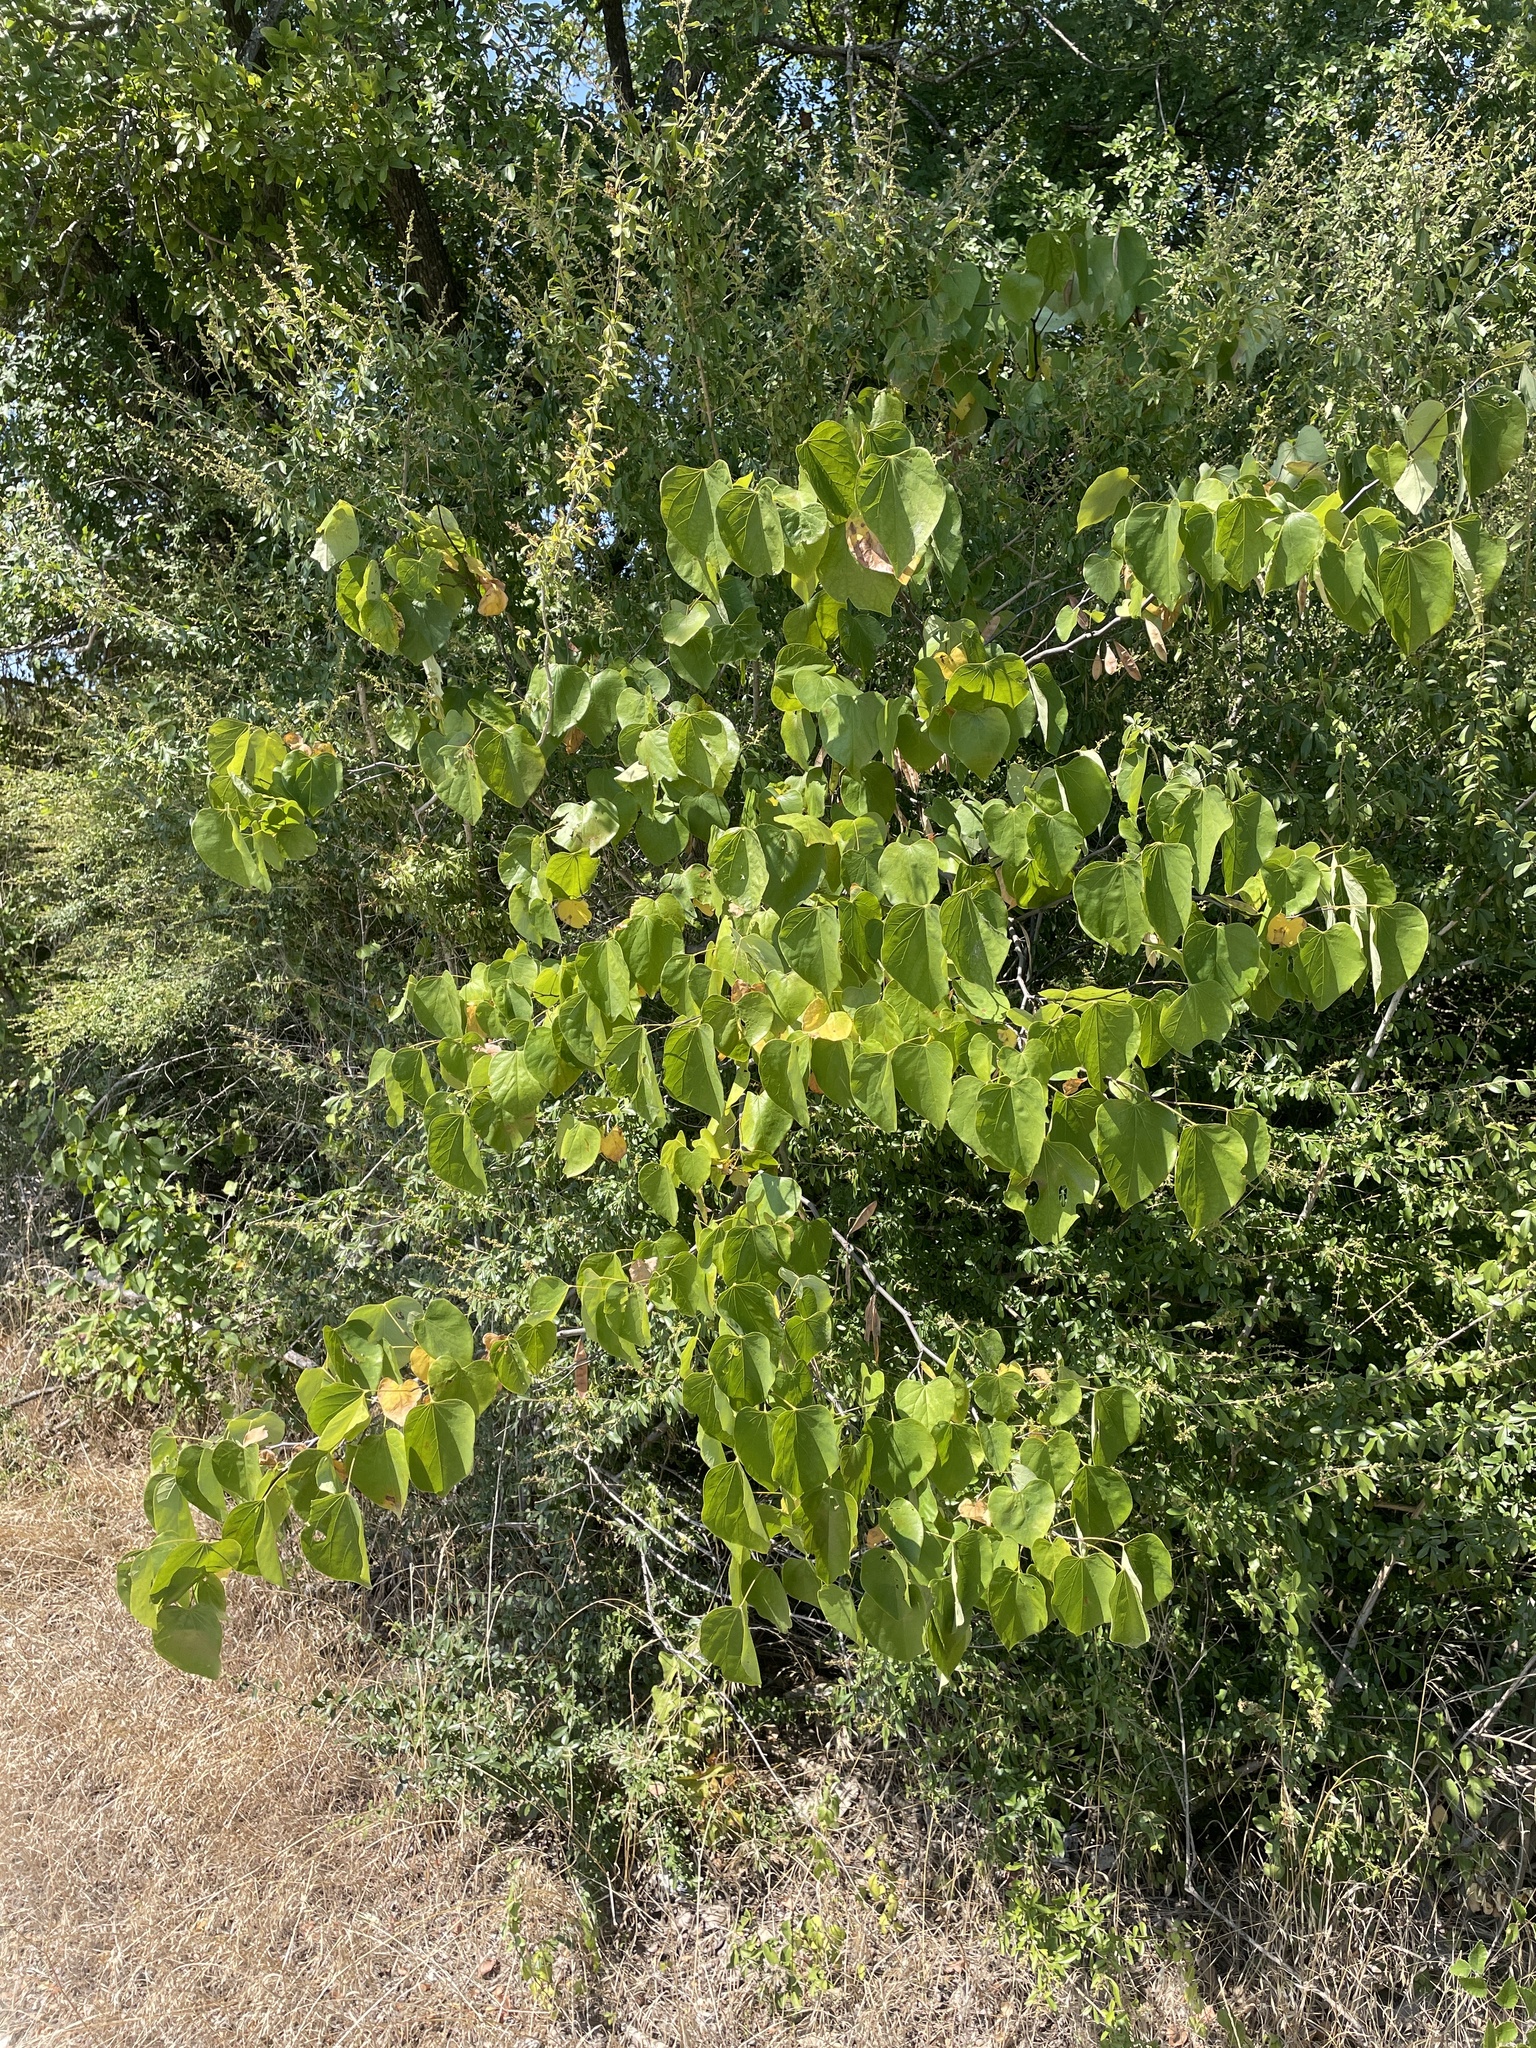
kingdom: Plantae
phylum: Tracheophyta
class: Magnoliopsida
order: Fabales
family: Fabaceae
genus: Cercis
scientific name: Cercis canadensis
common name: Eastern redbud
